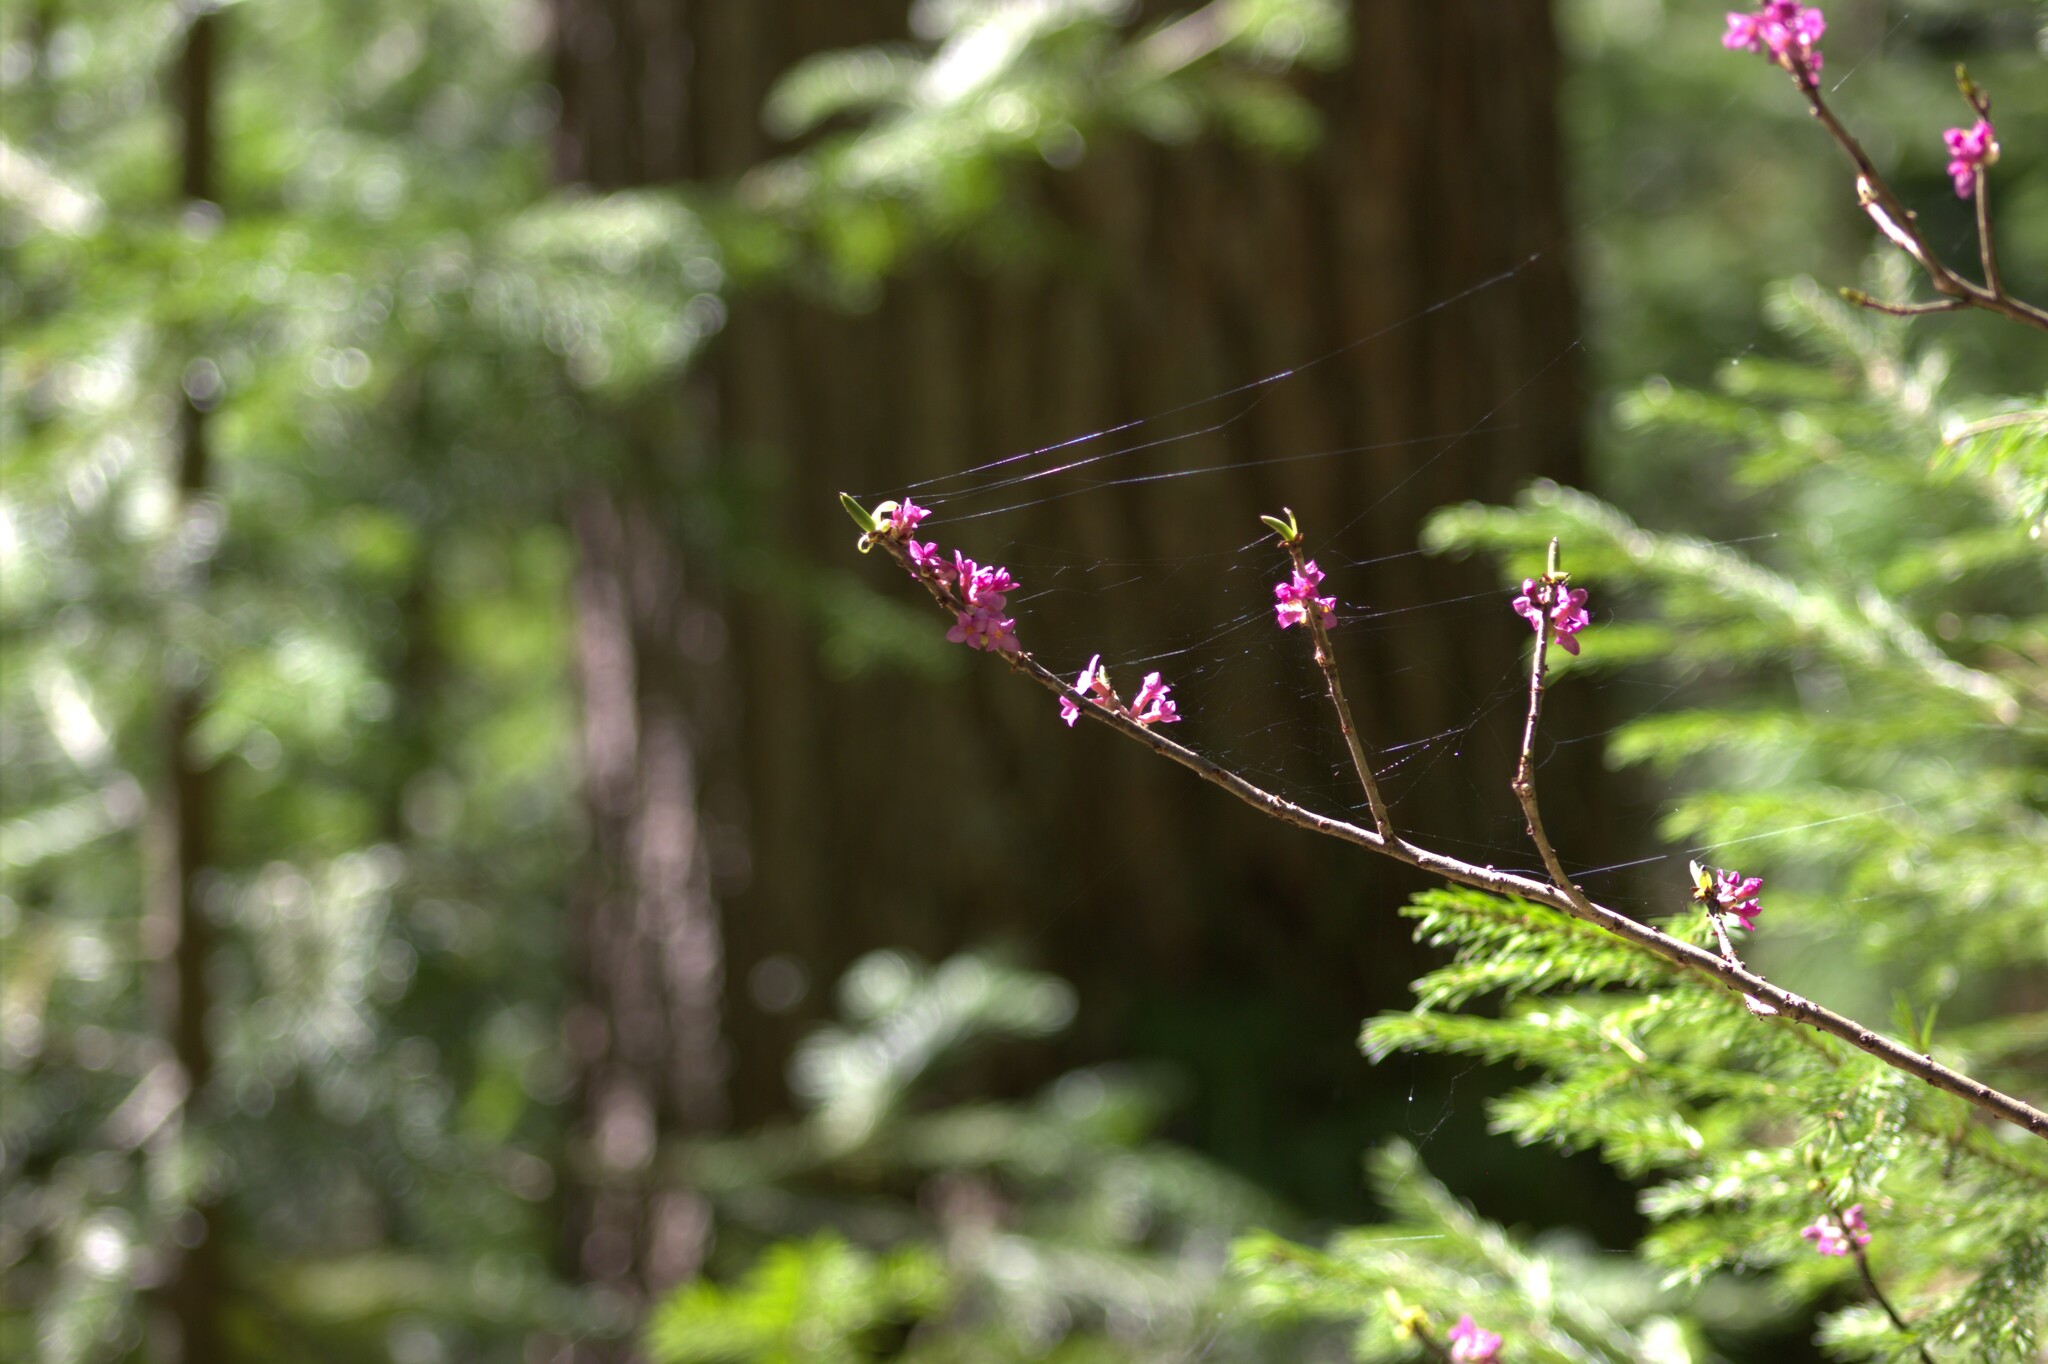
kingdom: Plantae
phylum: Tracheophyta
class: Magnoliopsida
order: Malvales
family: Thymelaeaceae
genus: Daphne
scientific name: Daphne mezereum
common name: Mezereon
